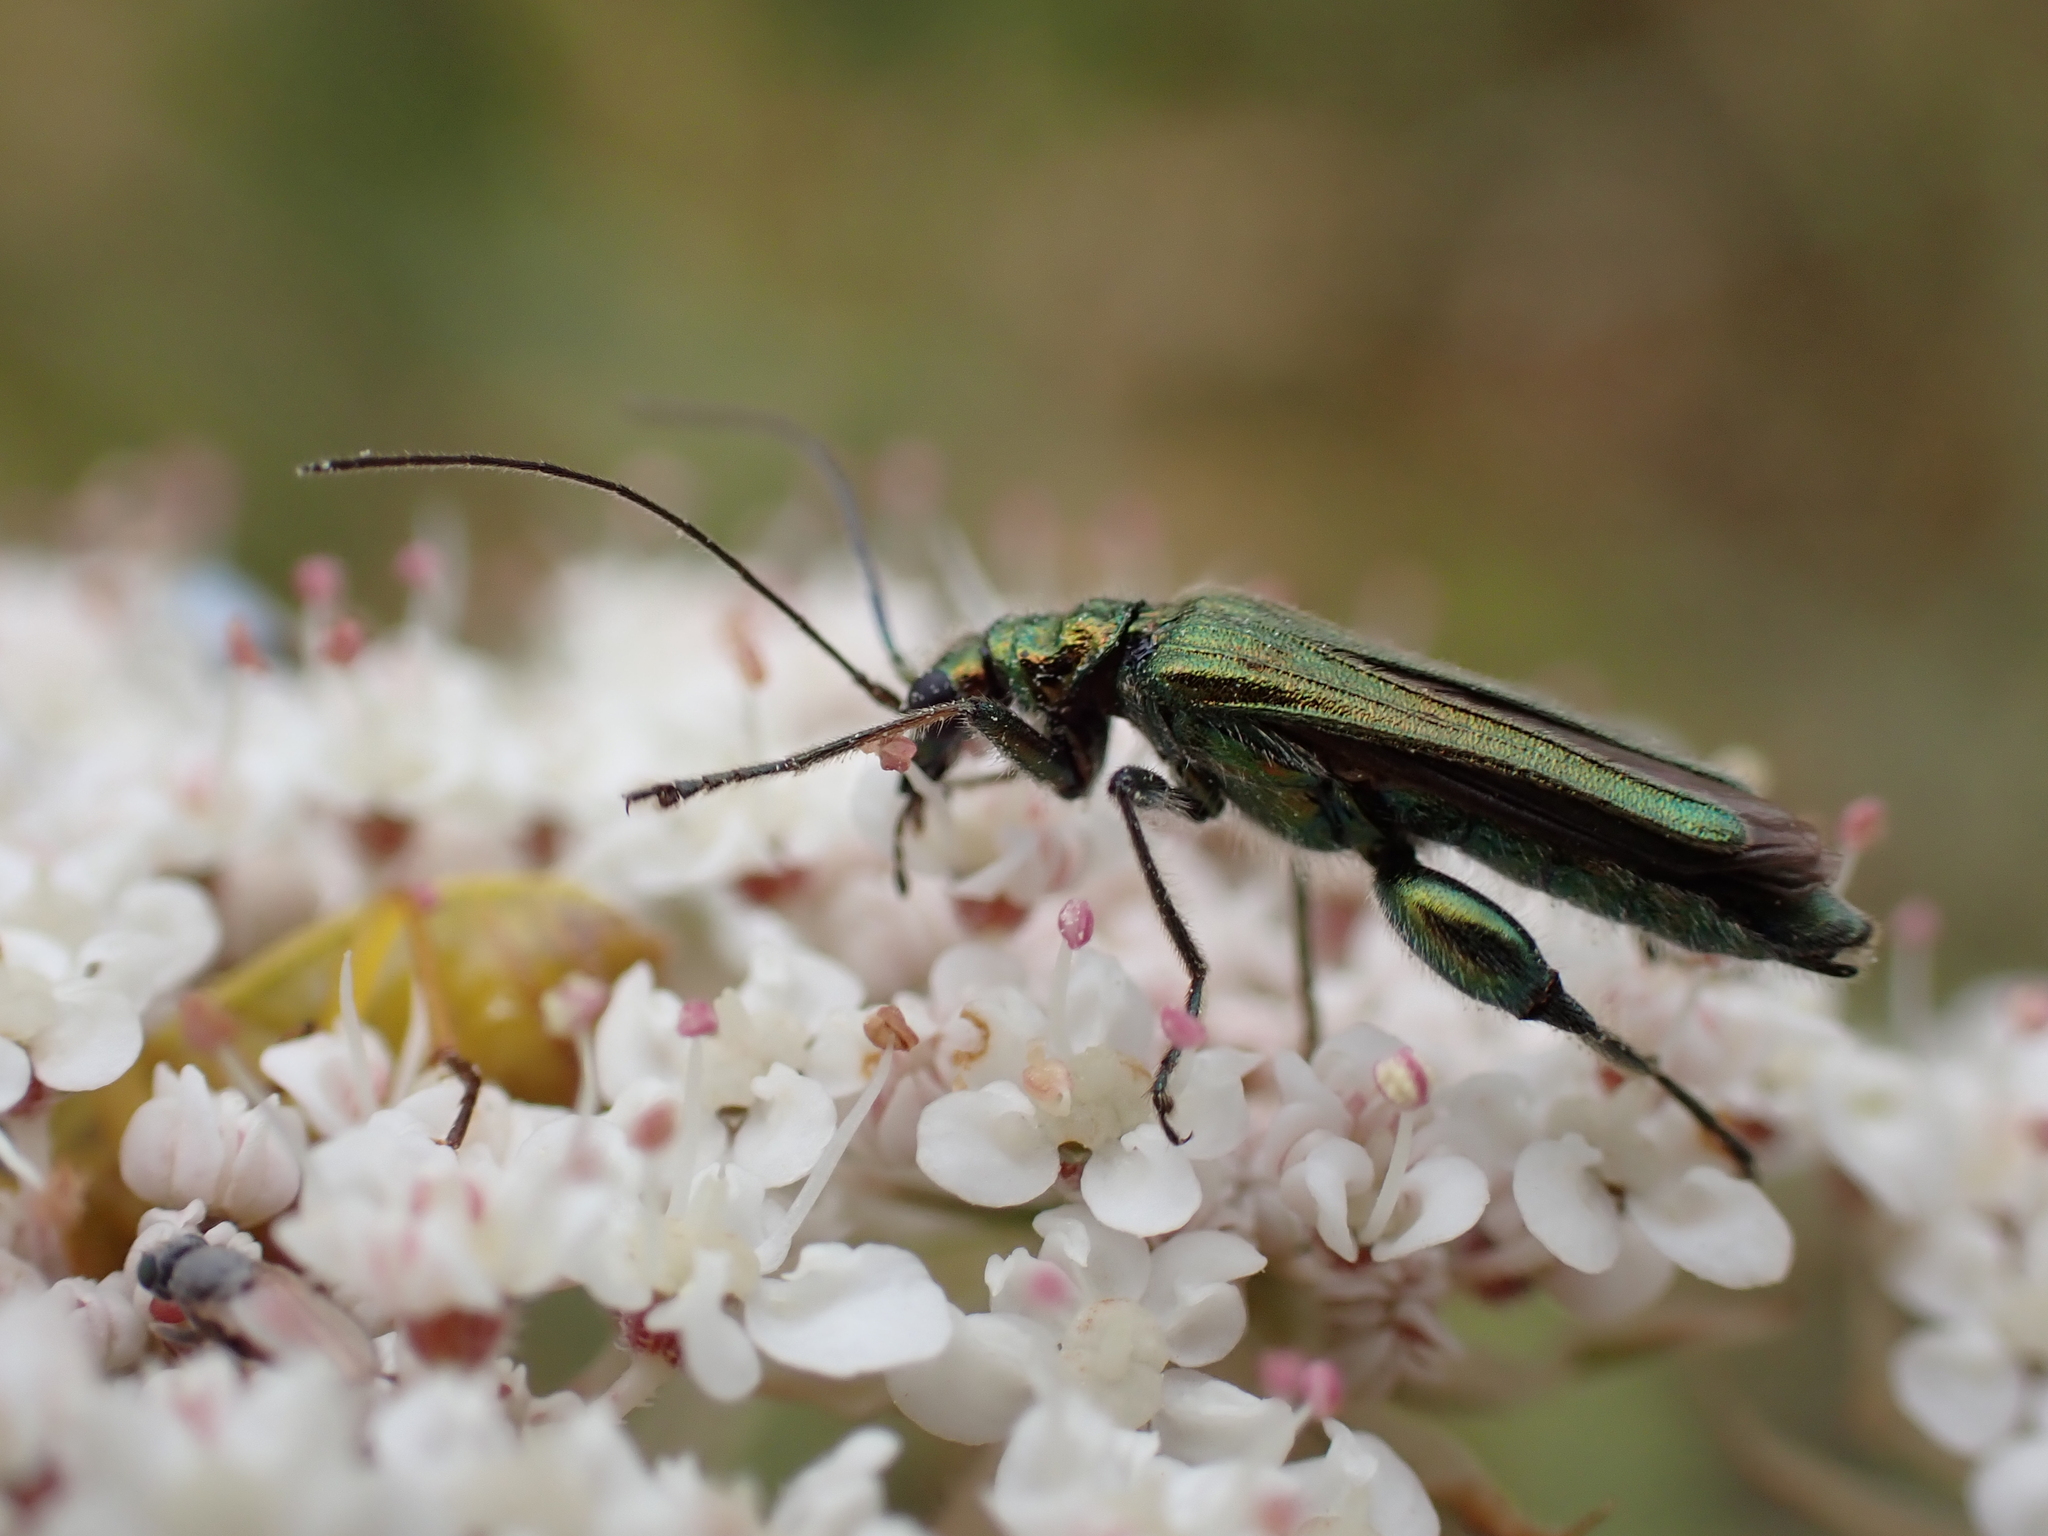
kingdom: Animalia
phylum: Arthropoda
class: Insecta
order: Coleoptera
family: Oedemeridae
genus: Oedemera
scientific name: Oedemera nobilis
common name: Swollen-thighed beetle
